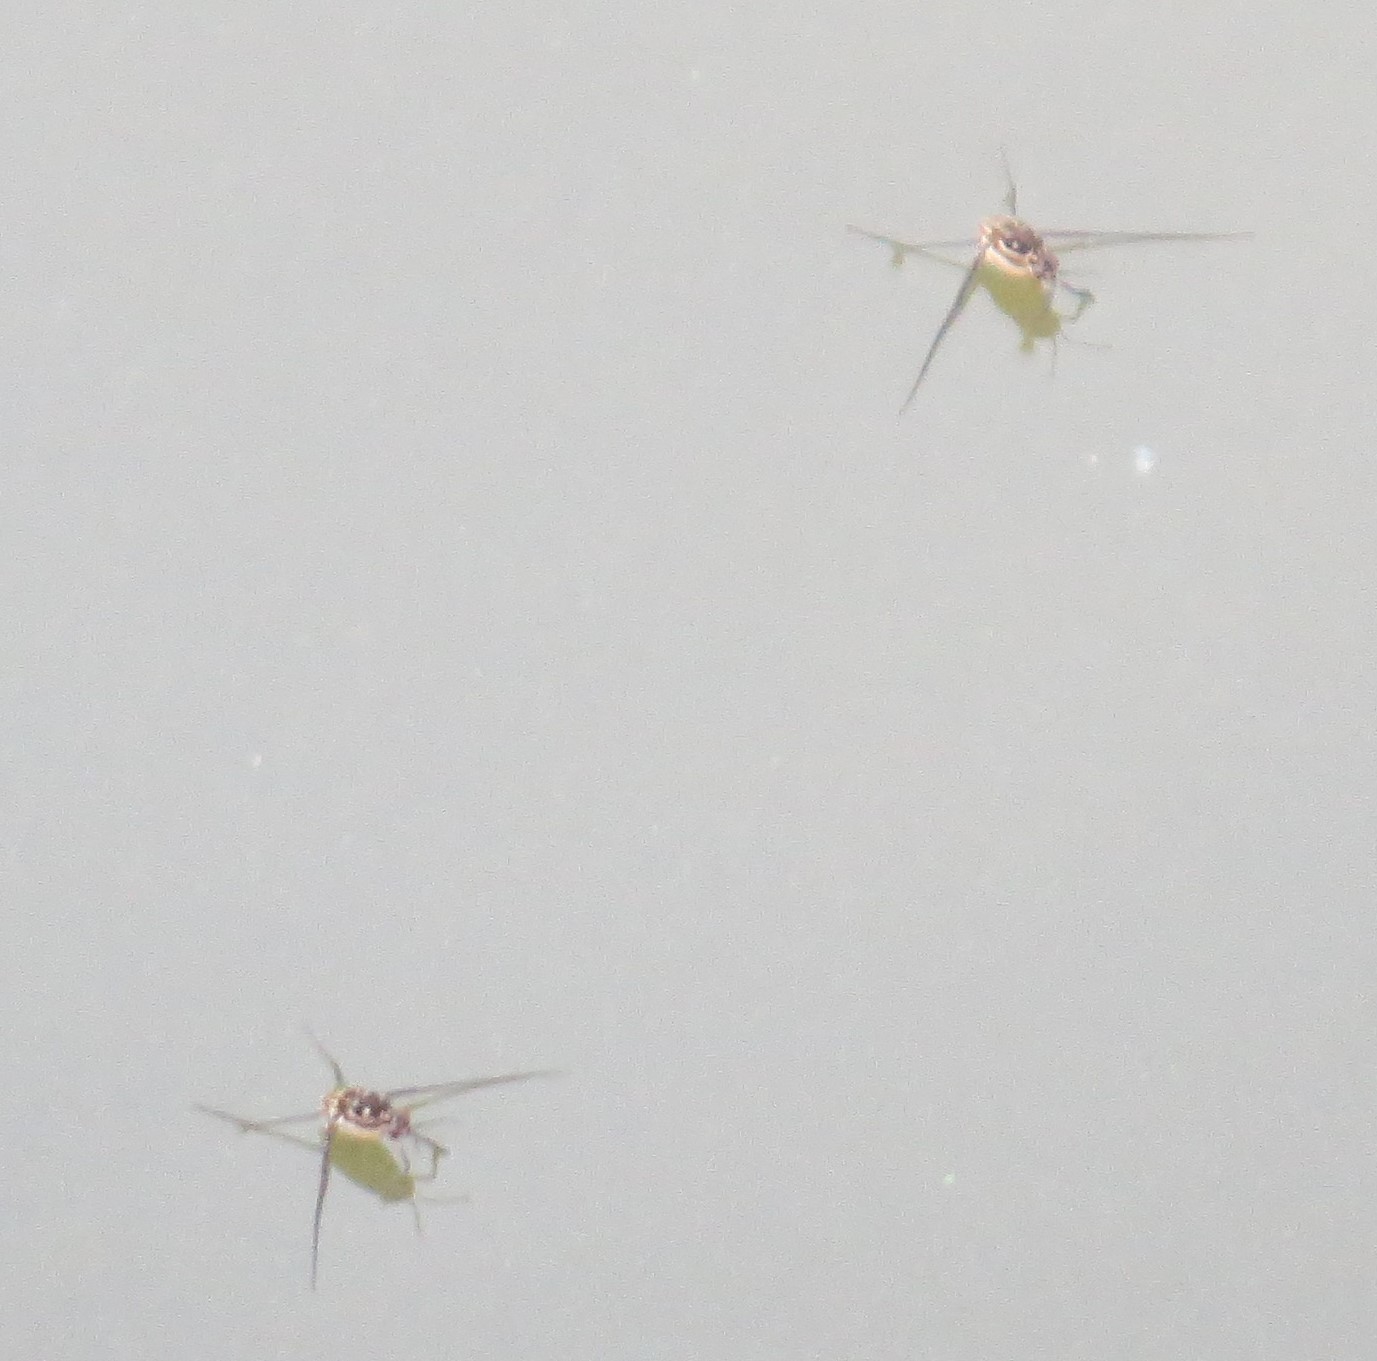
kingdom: Animalia
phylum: Arthropoda
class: Insecta
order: Hemiptera
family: Gerridae
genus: Trepobates
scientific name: Trepobates
